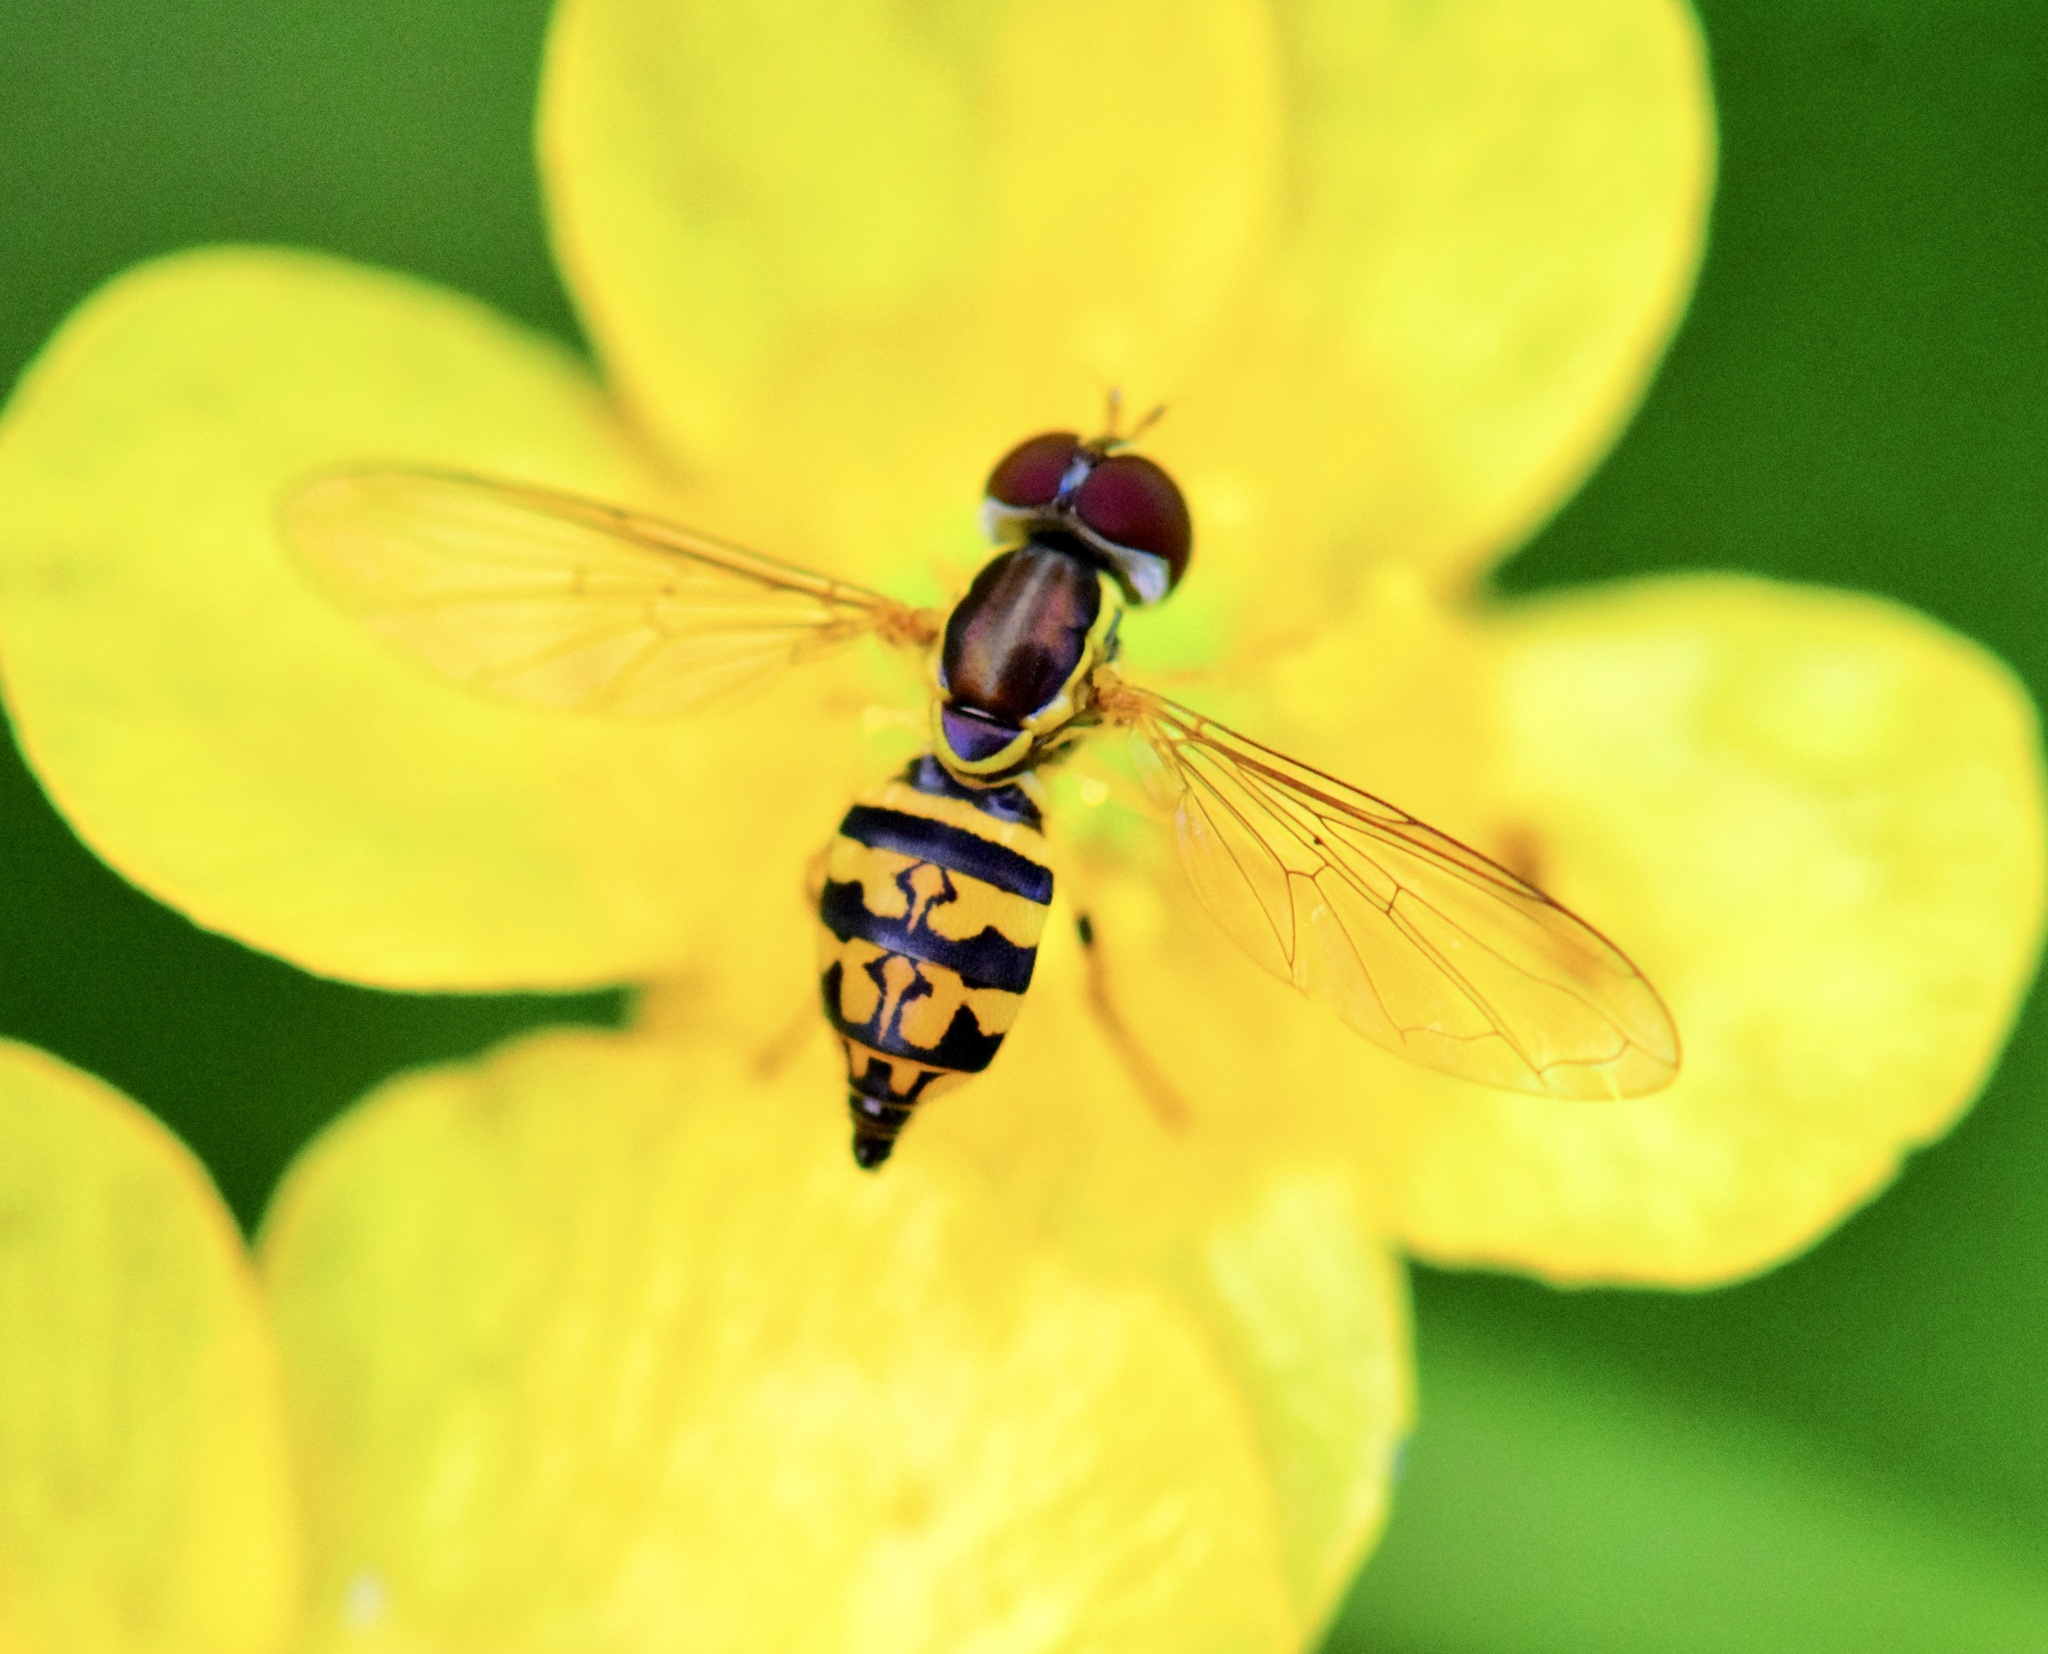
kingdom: Animalia
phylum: Arthropoda
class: Insecta
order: Diptera
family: Syrphidae
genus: Toxomerus
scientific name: Toxomerus geminatus
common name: Eastern calligrapher
